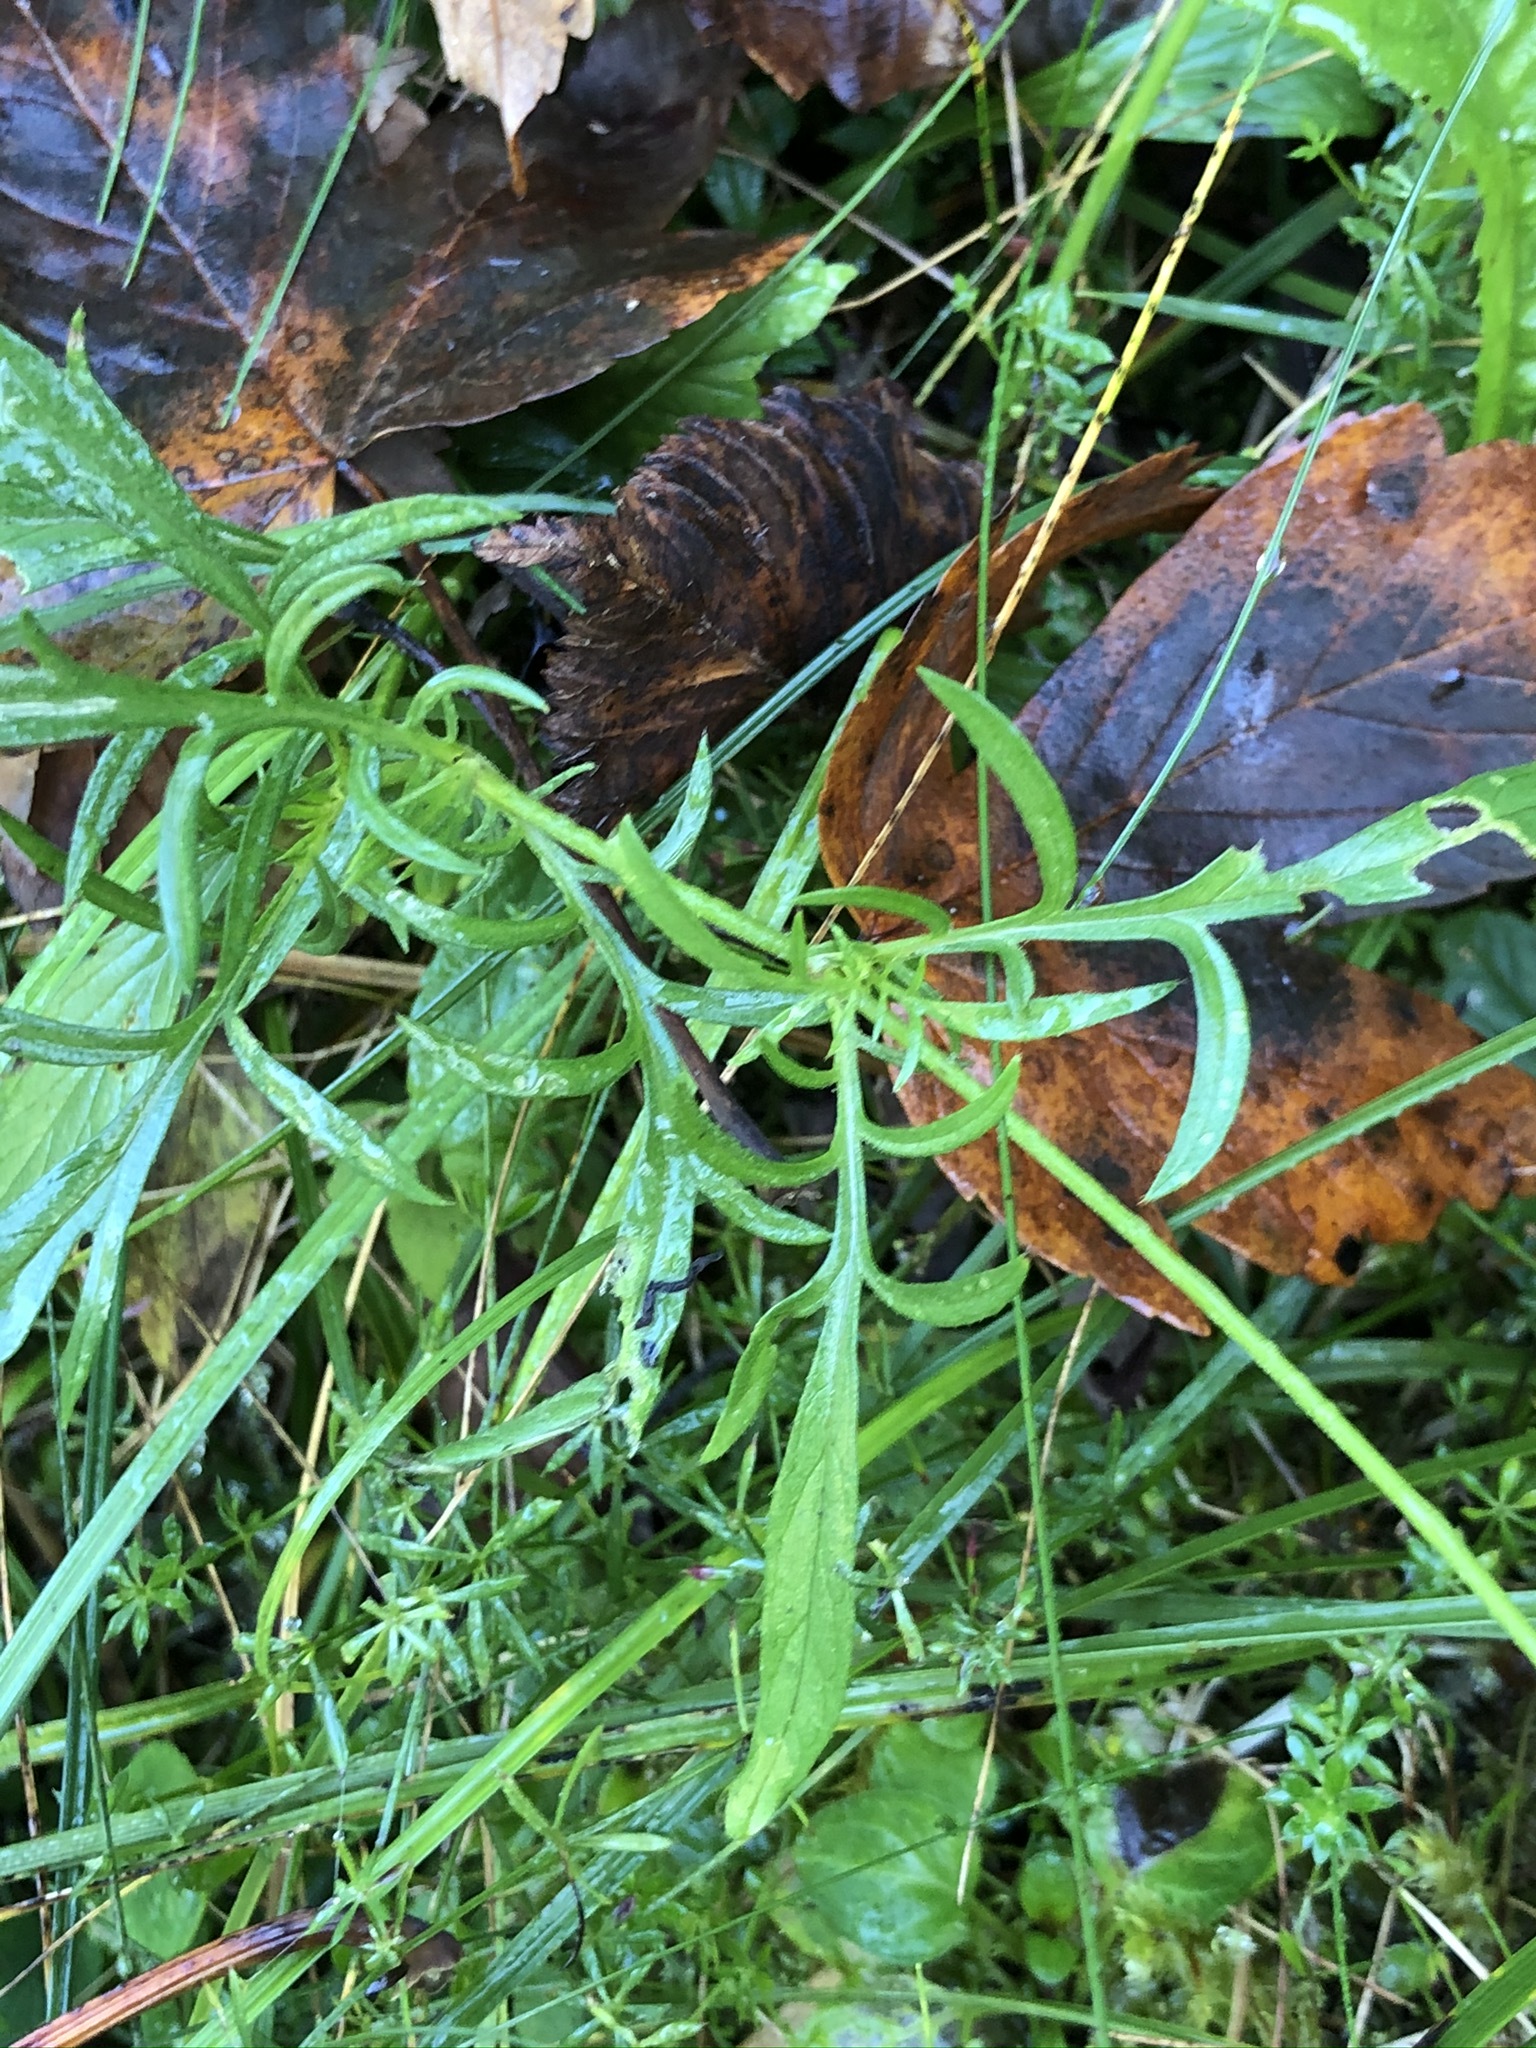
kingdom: Plantae
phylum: Tracheophyta
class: Magnoliopsida
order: Dipsacales
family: Caprifoliaceae
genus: Scabiosa
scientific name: Scabiosa lucida
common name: Shining scabious
